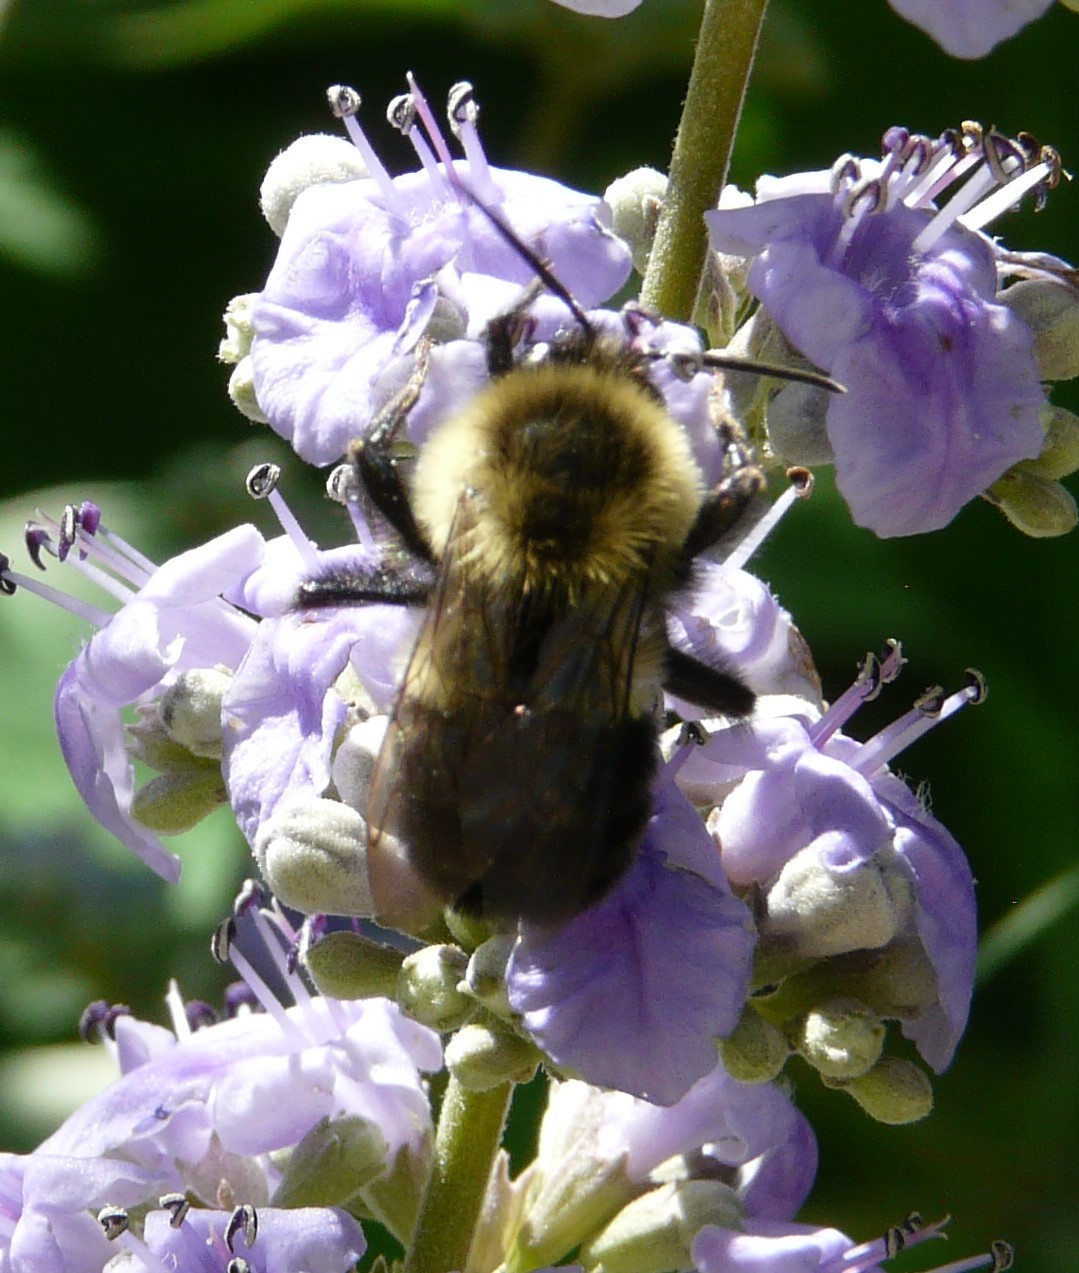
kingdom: Animalia
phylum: Arthropoda
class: Insecta
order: Hymenoptera
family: Apidae
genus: Bombus
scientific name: Bombus impatiens
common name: Common eastern bumble bee
